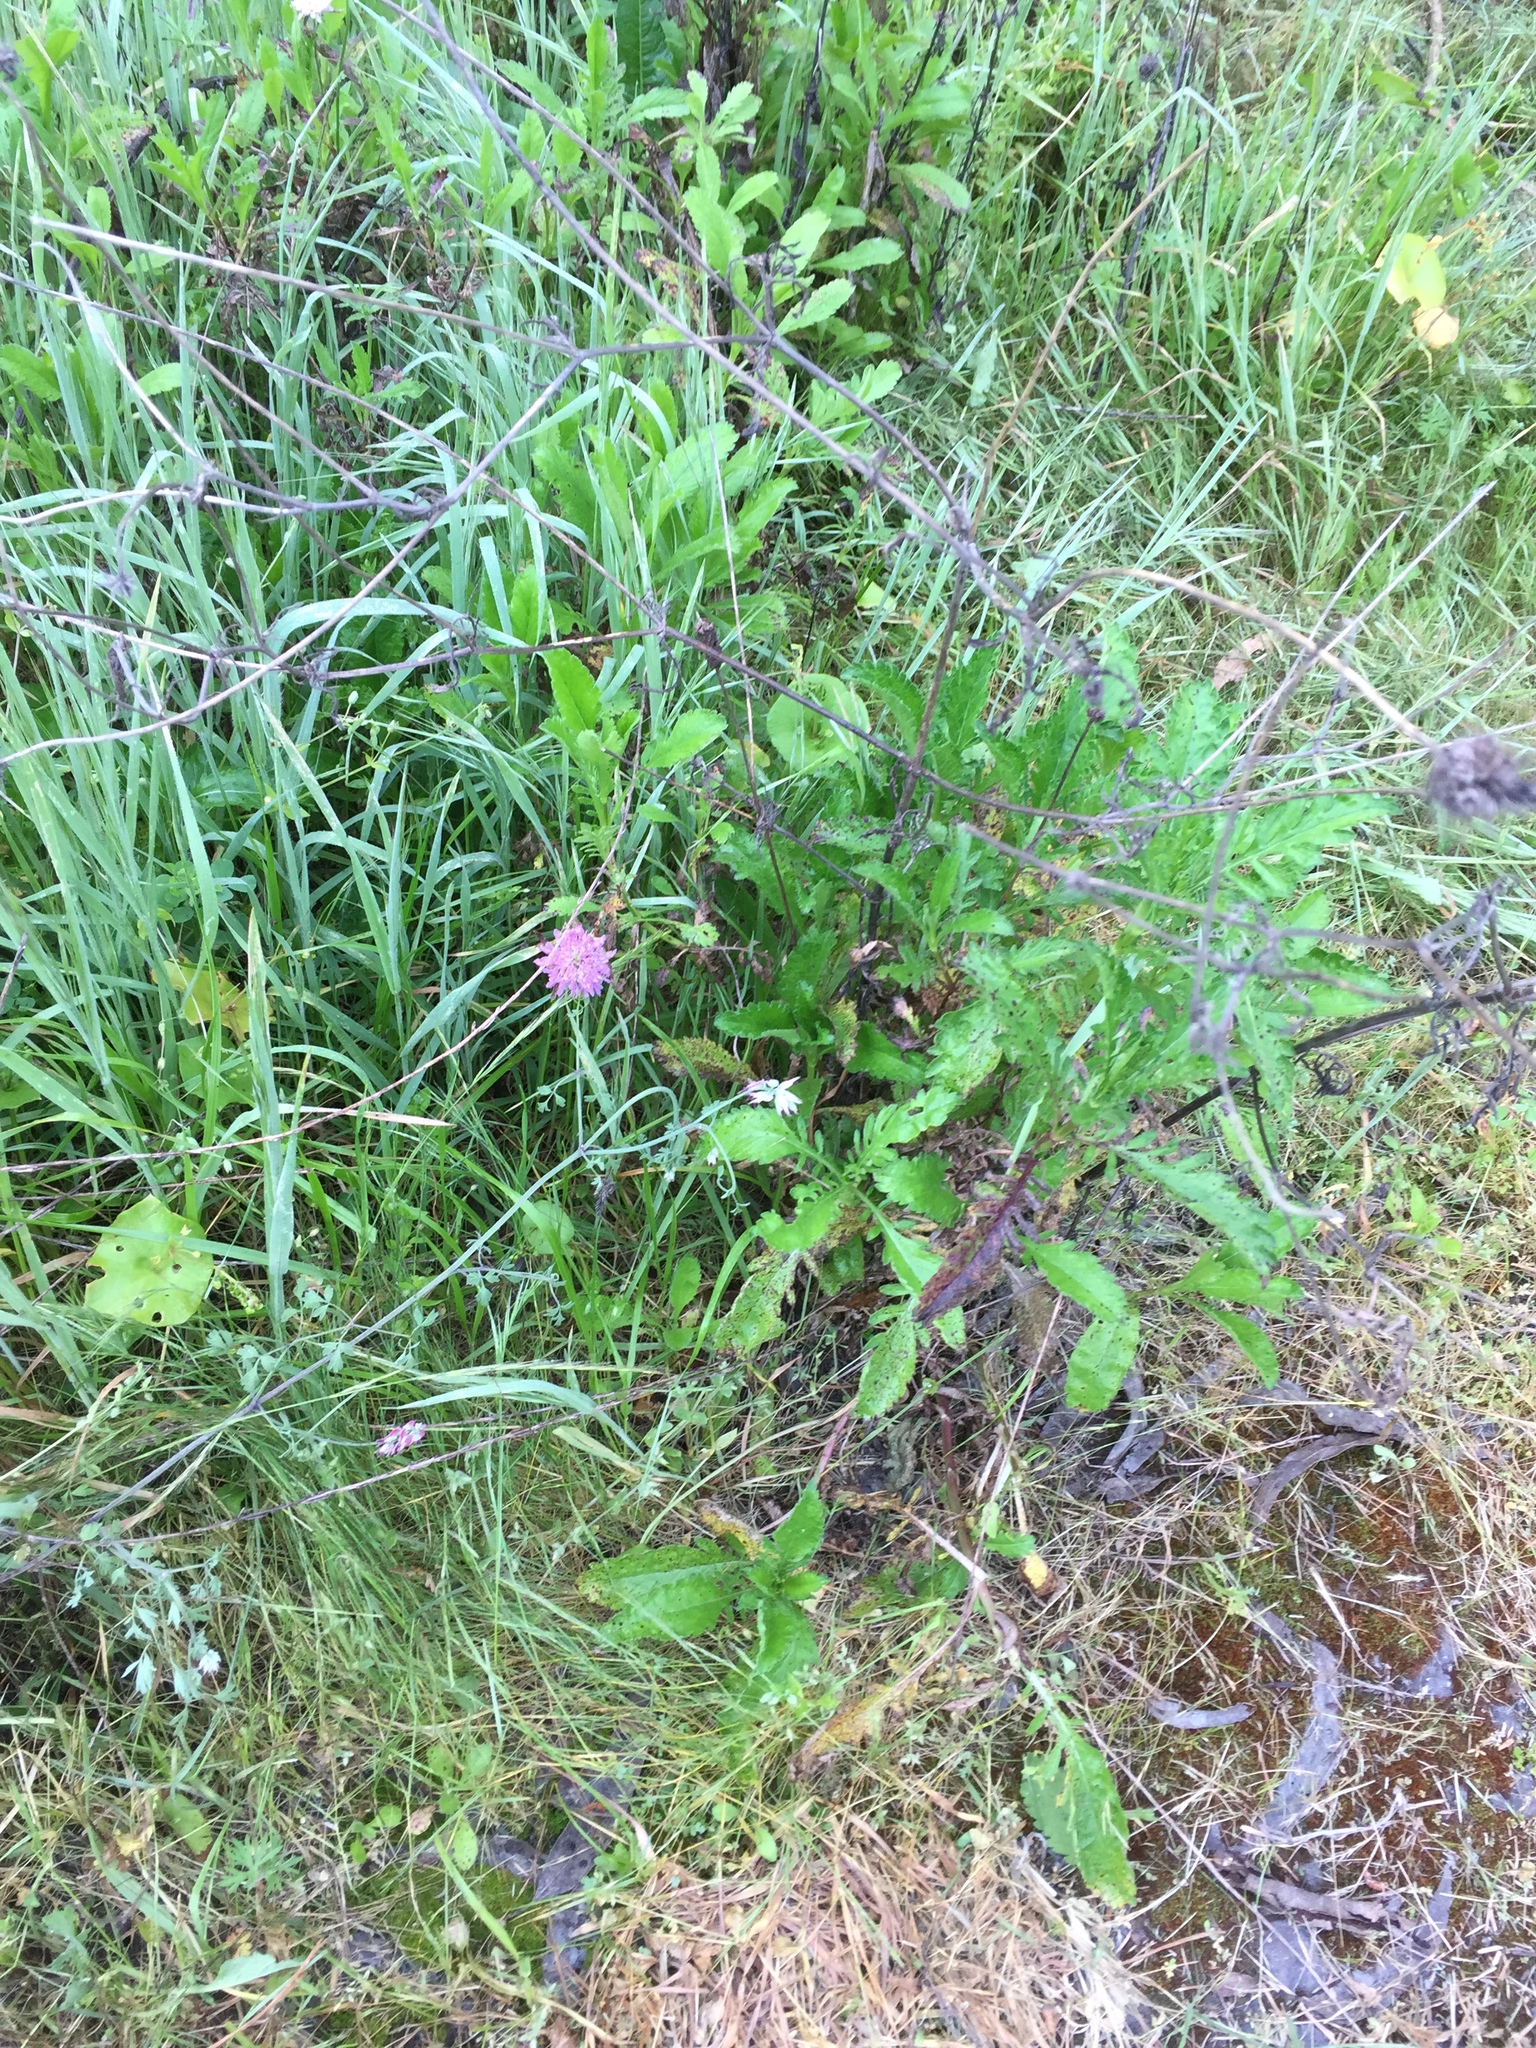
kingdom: Plantae
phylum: Tracheophyta
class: Magnoliopsida
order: Dipsacales
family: Caprifoliaceae
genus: Sixalix
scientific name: Sixalix atropurpurea
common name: Sweet scabious
